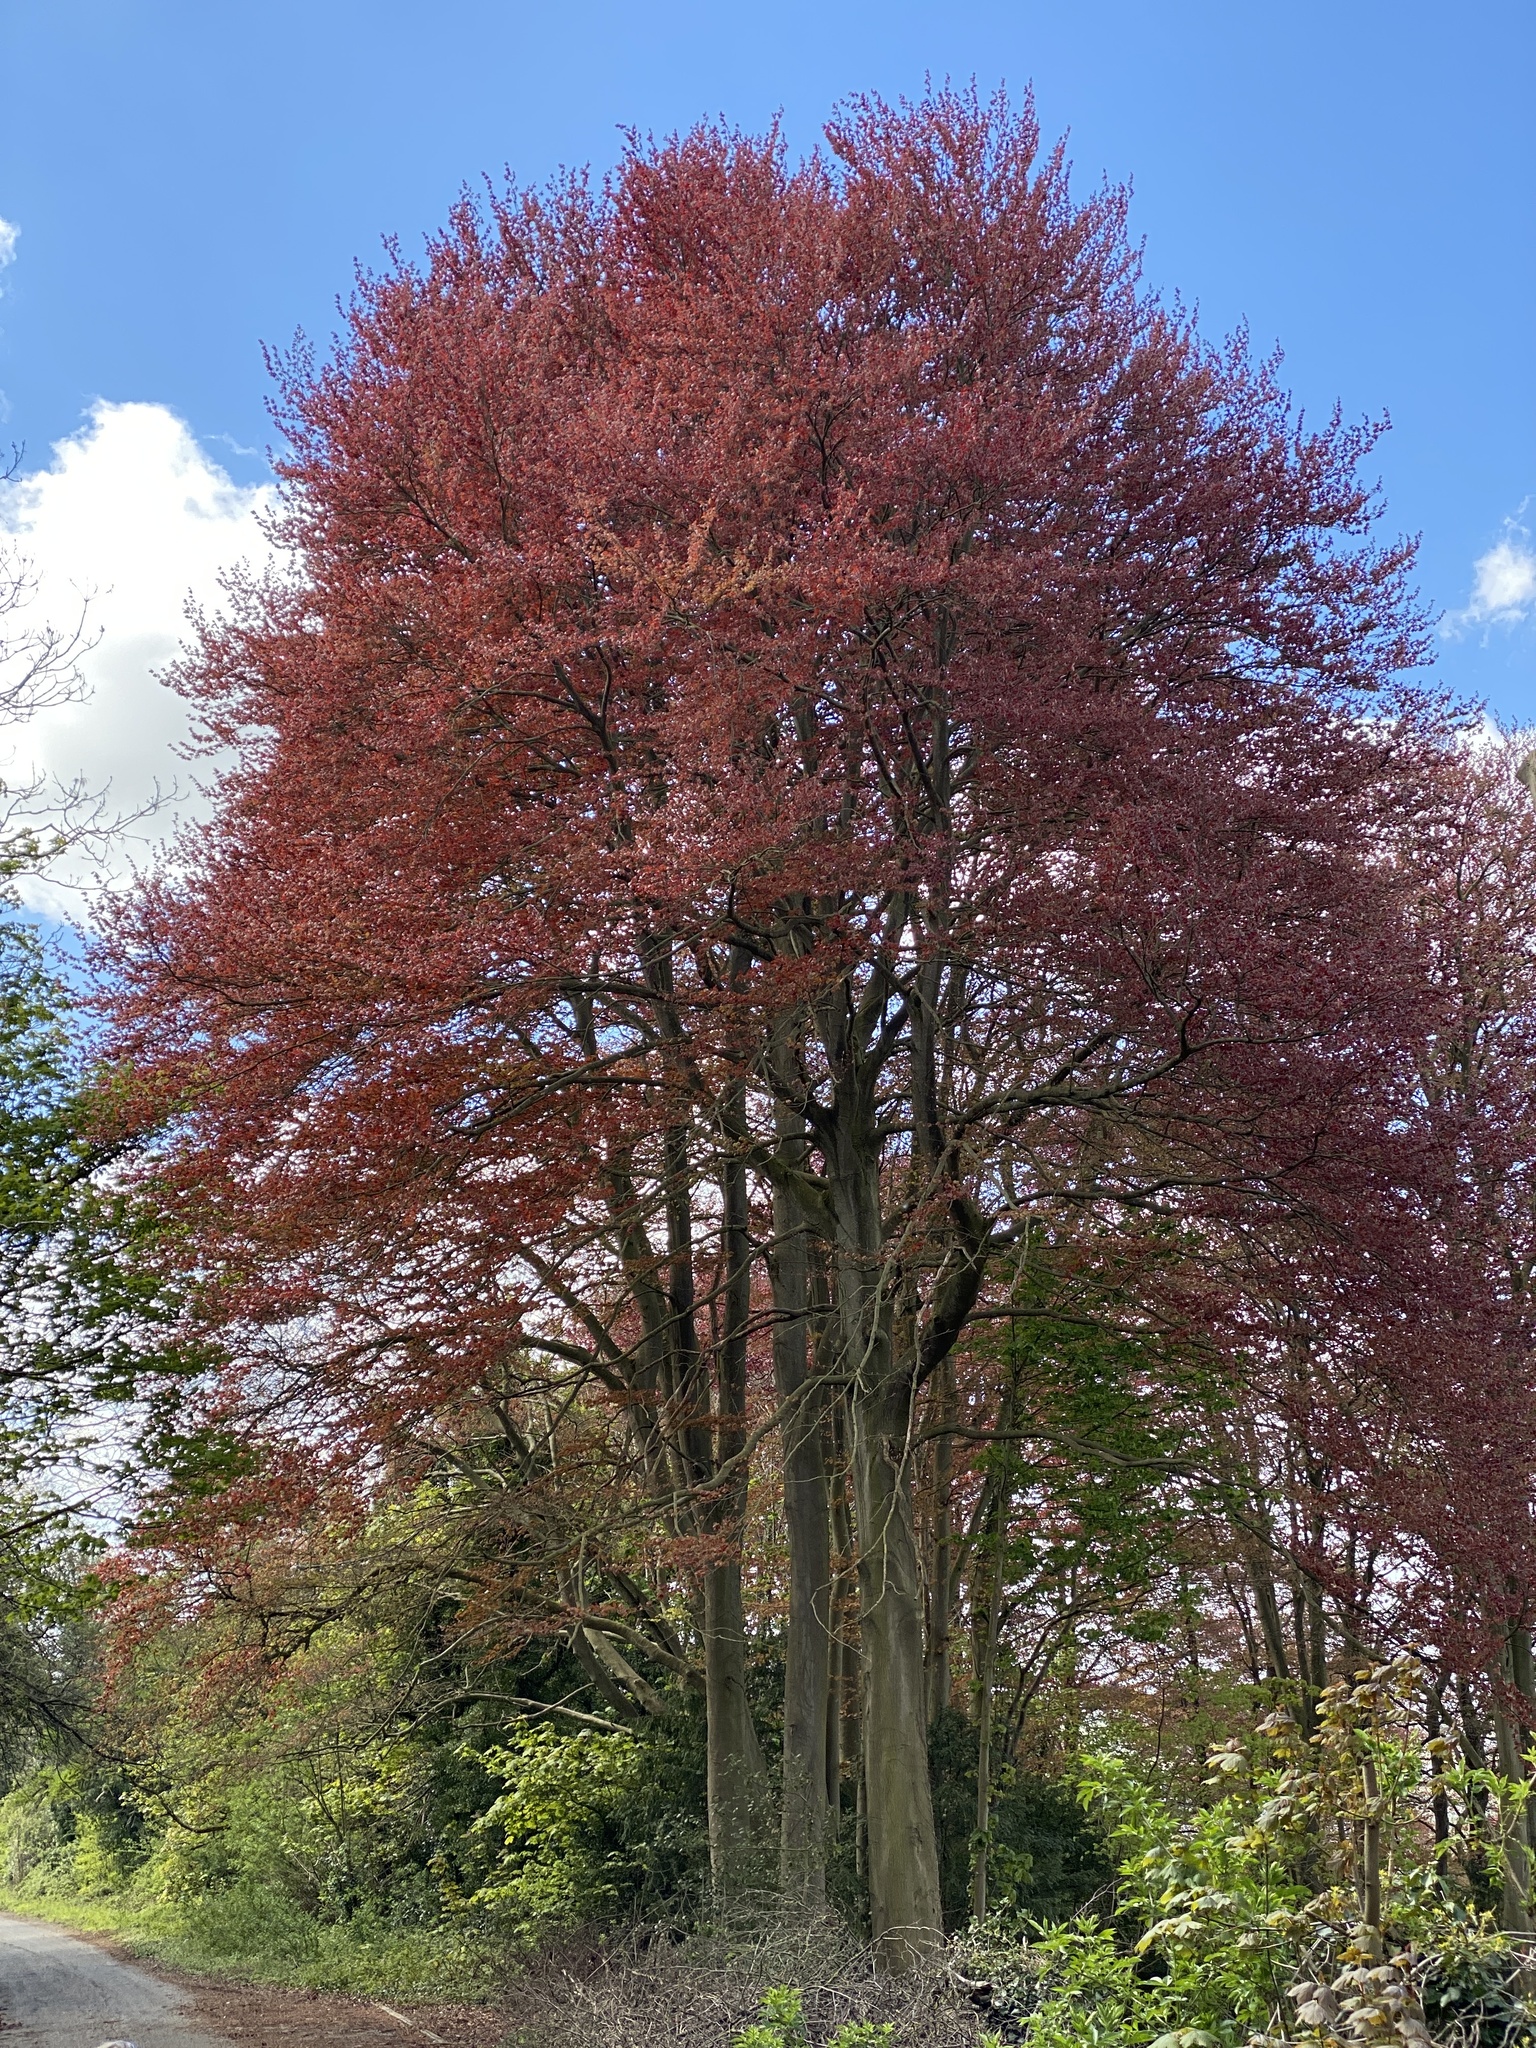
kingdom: Plantae
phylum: Tracheophyta
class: Magnoliopsida
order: Fagales
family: Fagaceae
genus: Fagus
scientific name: Fagus sylvatica
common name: Beech
